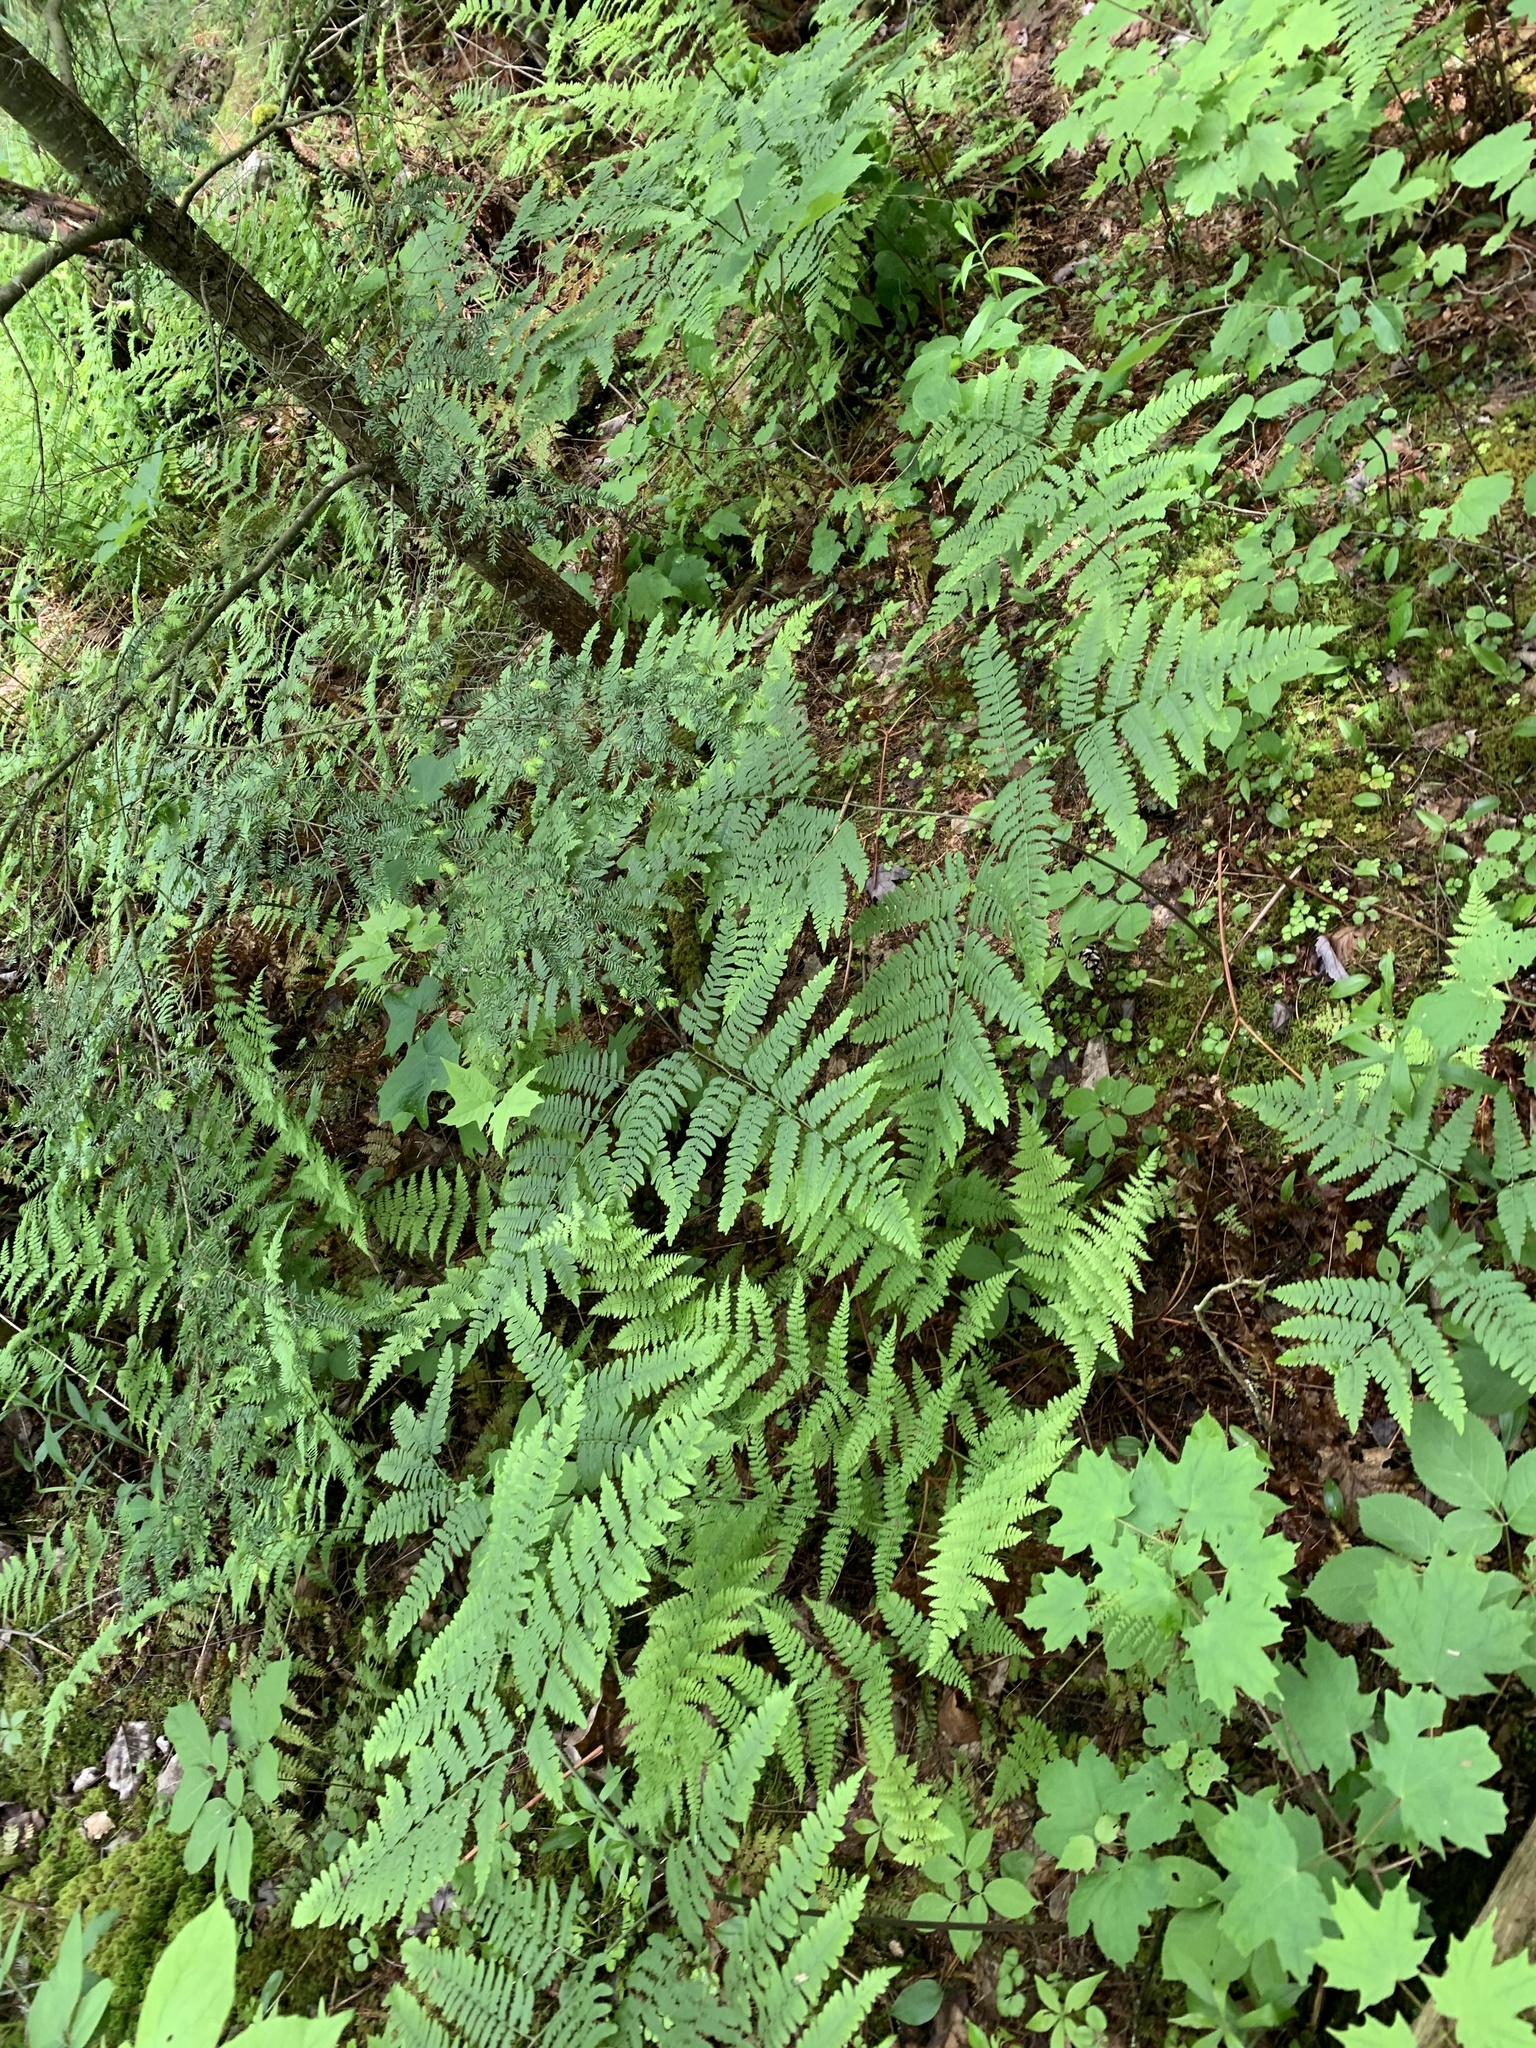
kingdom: Plantae
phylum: Tracheophyta
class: Polypodiopsida
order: Polypodiales
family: Dennstaedtiaceae
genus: Pteridium
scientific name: Pteridium aquilinum
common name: Bracken
